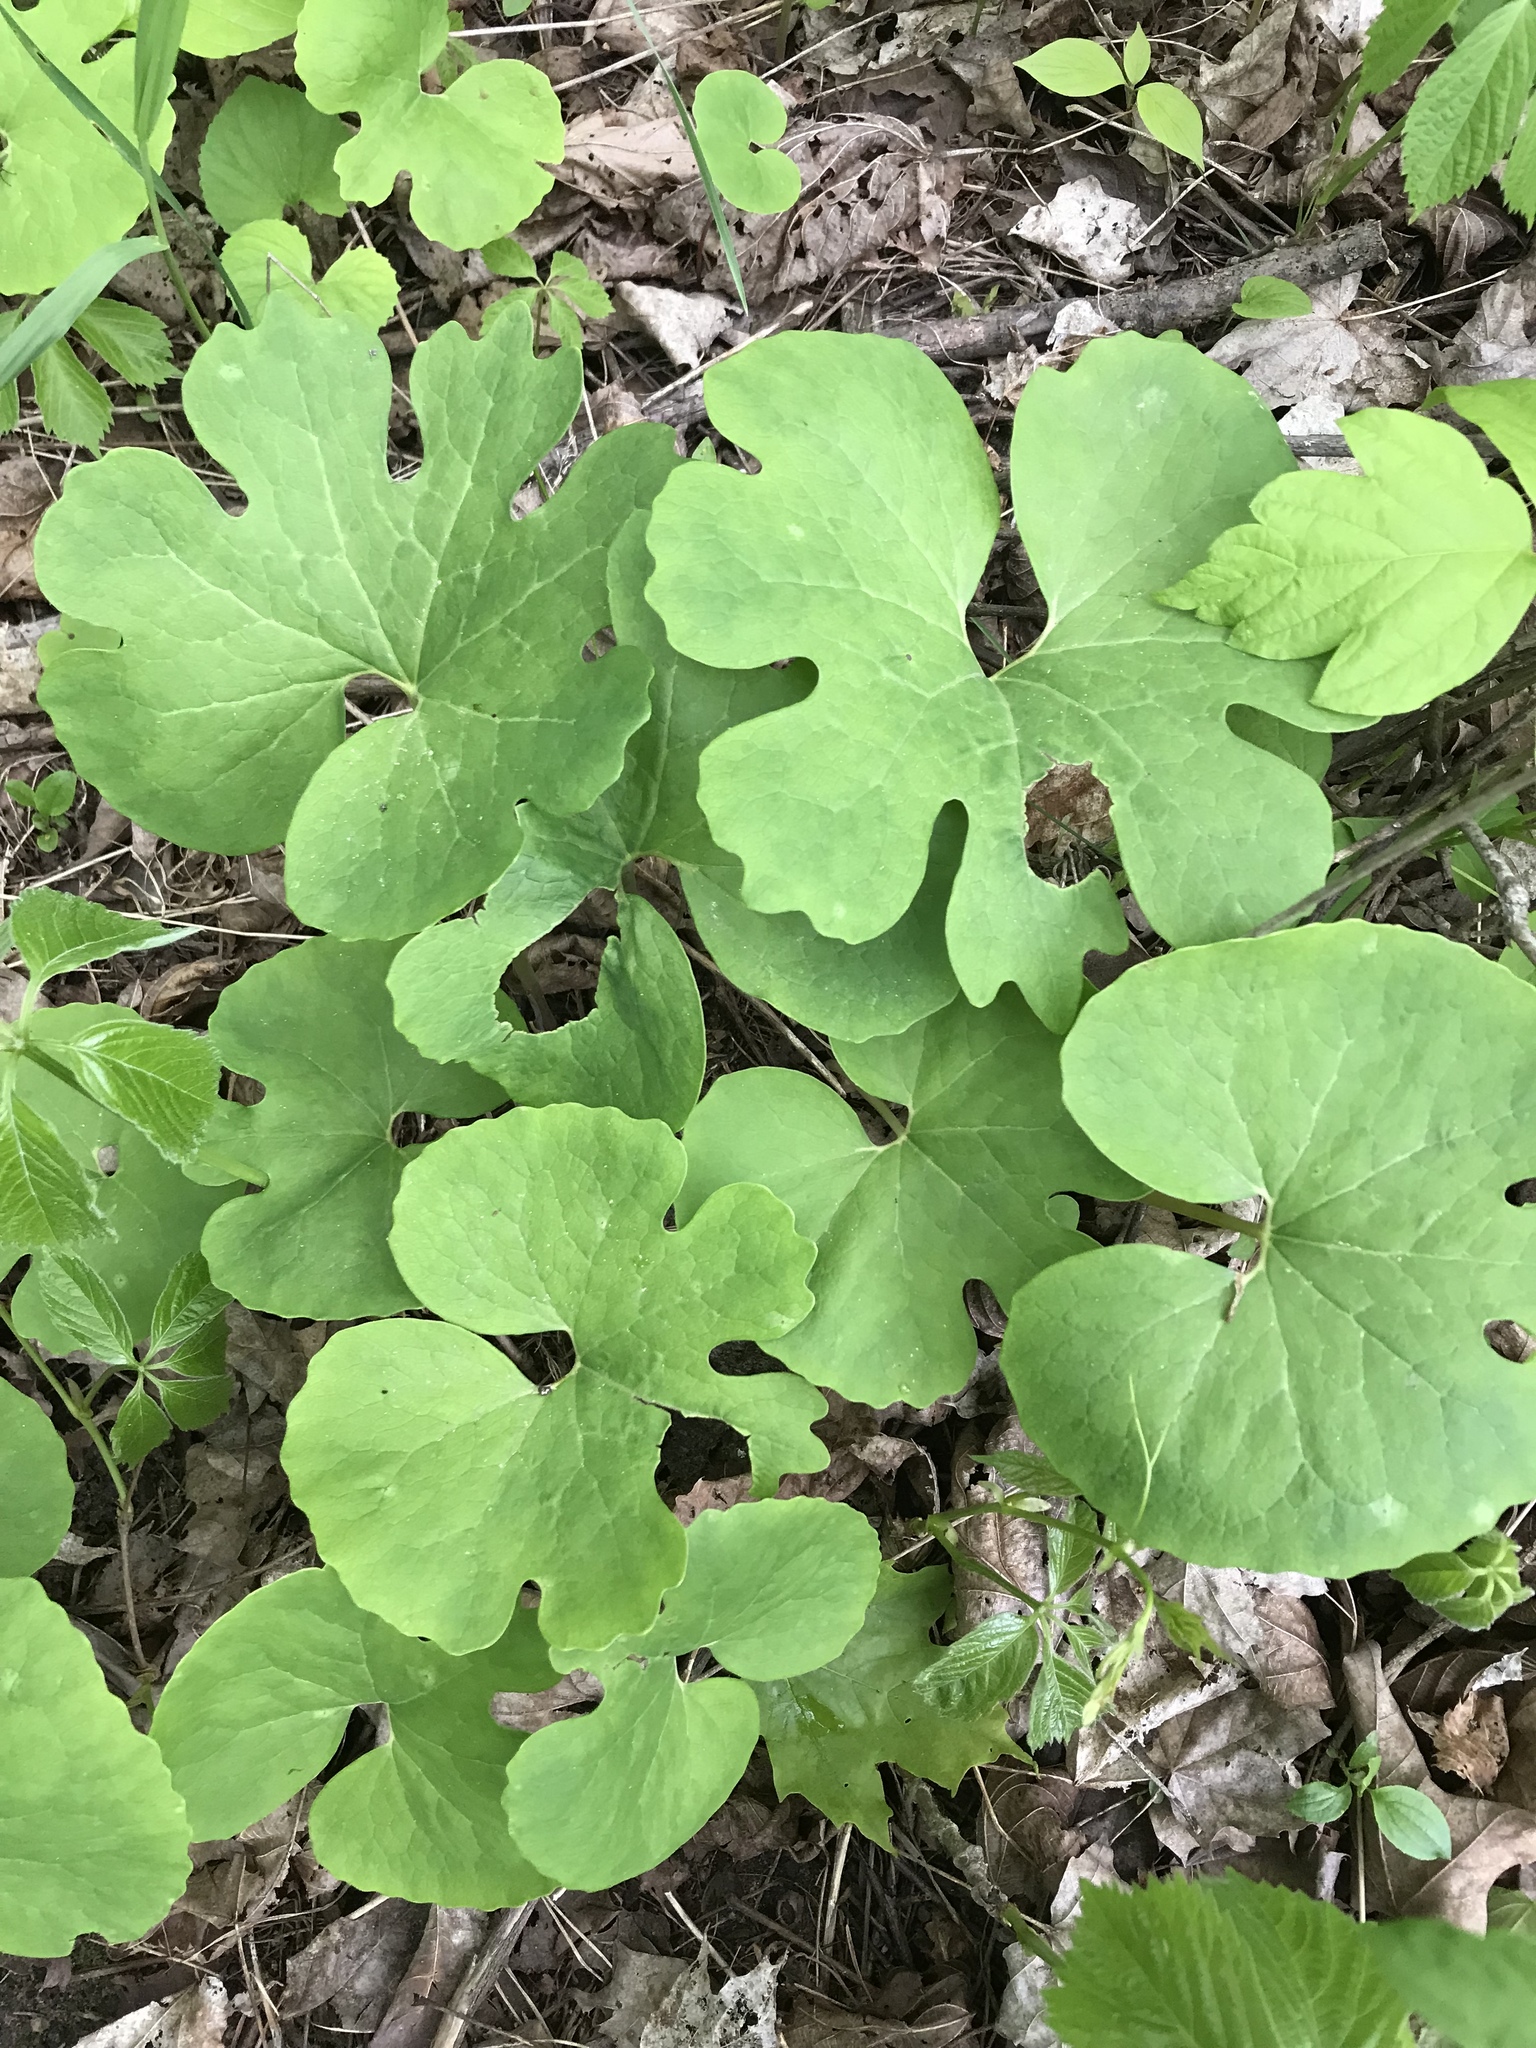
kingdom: Plantae
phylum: Tracheophyta
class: Magnoliopsida
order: Ranunculales
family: Papaveraceae
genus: Sanguinaria
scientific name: Sanguinaria canadensis
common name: Bloodroot
